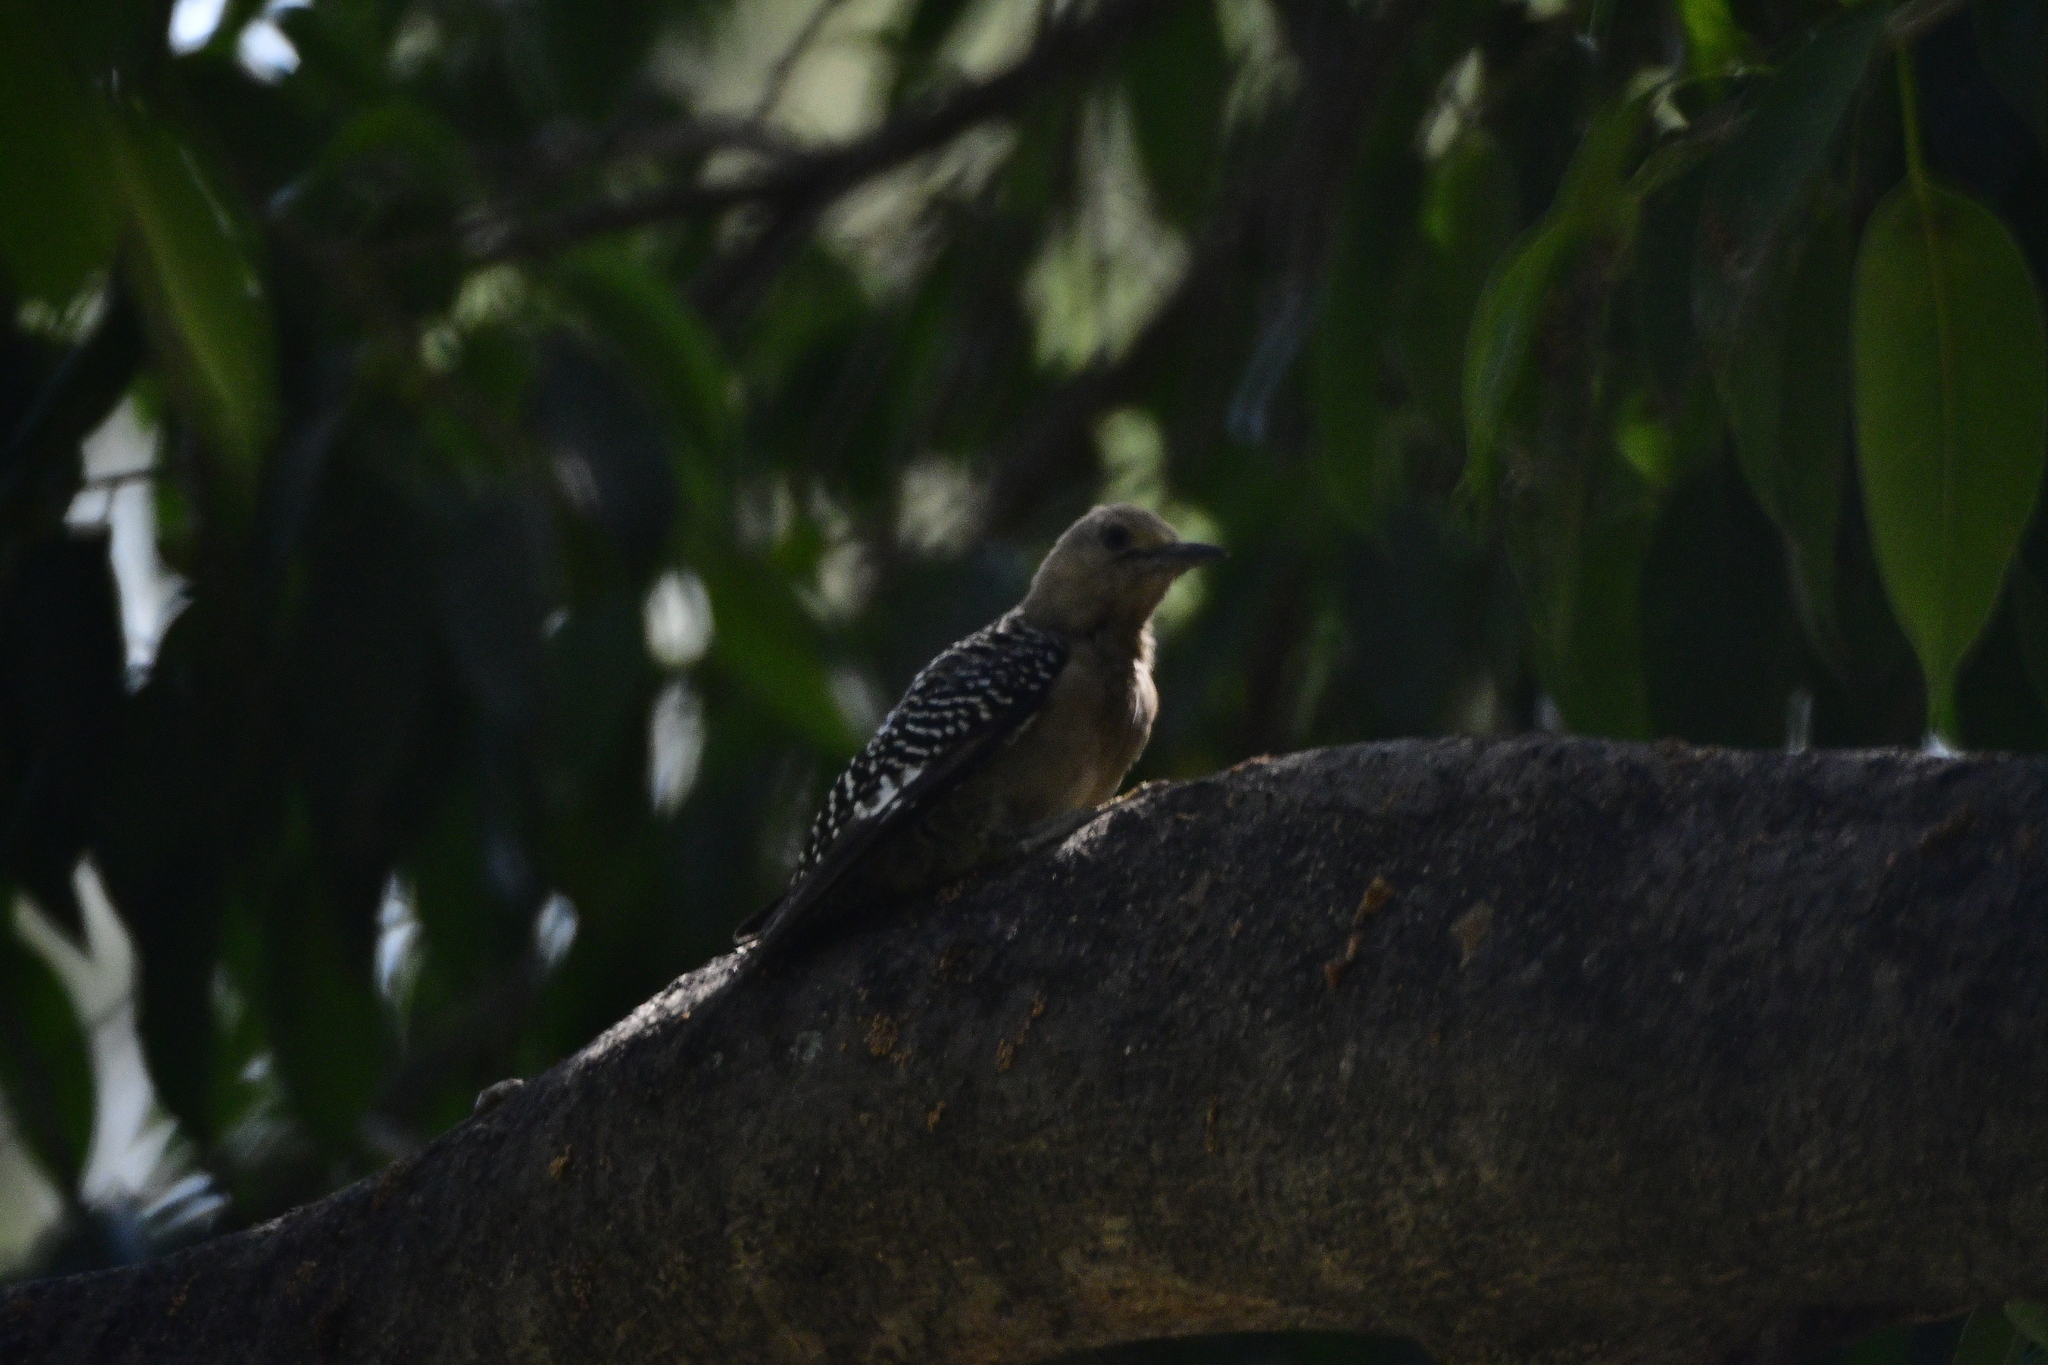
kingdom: Animalia
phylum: Chordata
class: Aves
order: Piciformes
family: Picidae
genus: Melanerpes
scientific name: Melanerpes uropygialis
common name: Gila woodpecker
